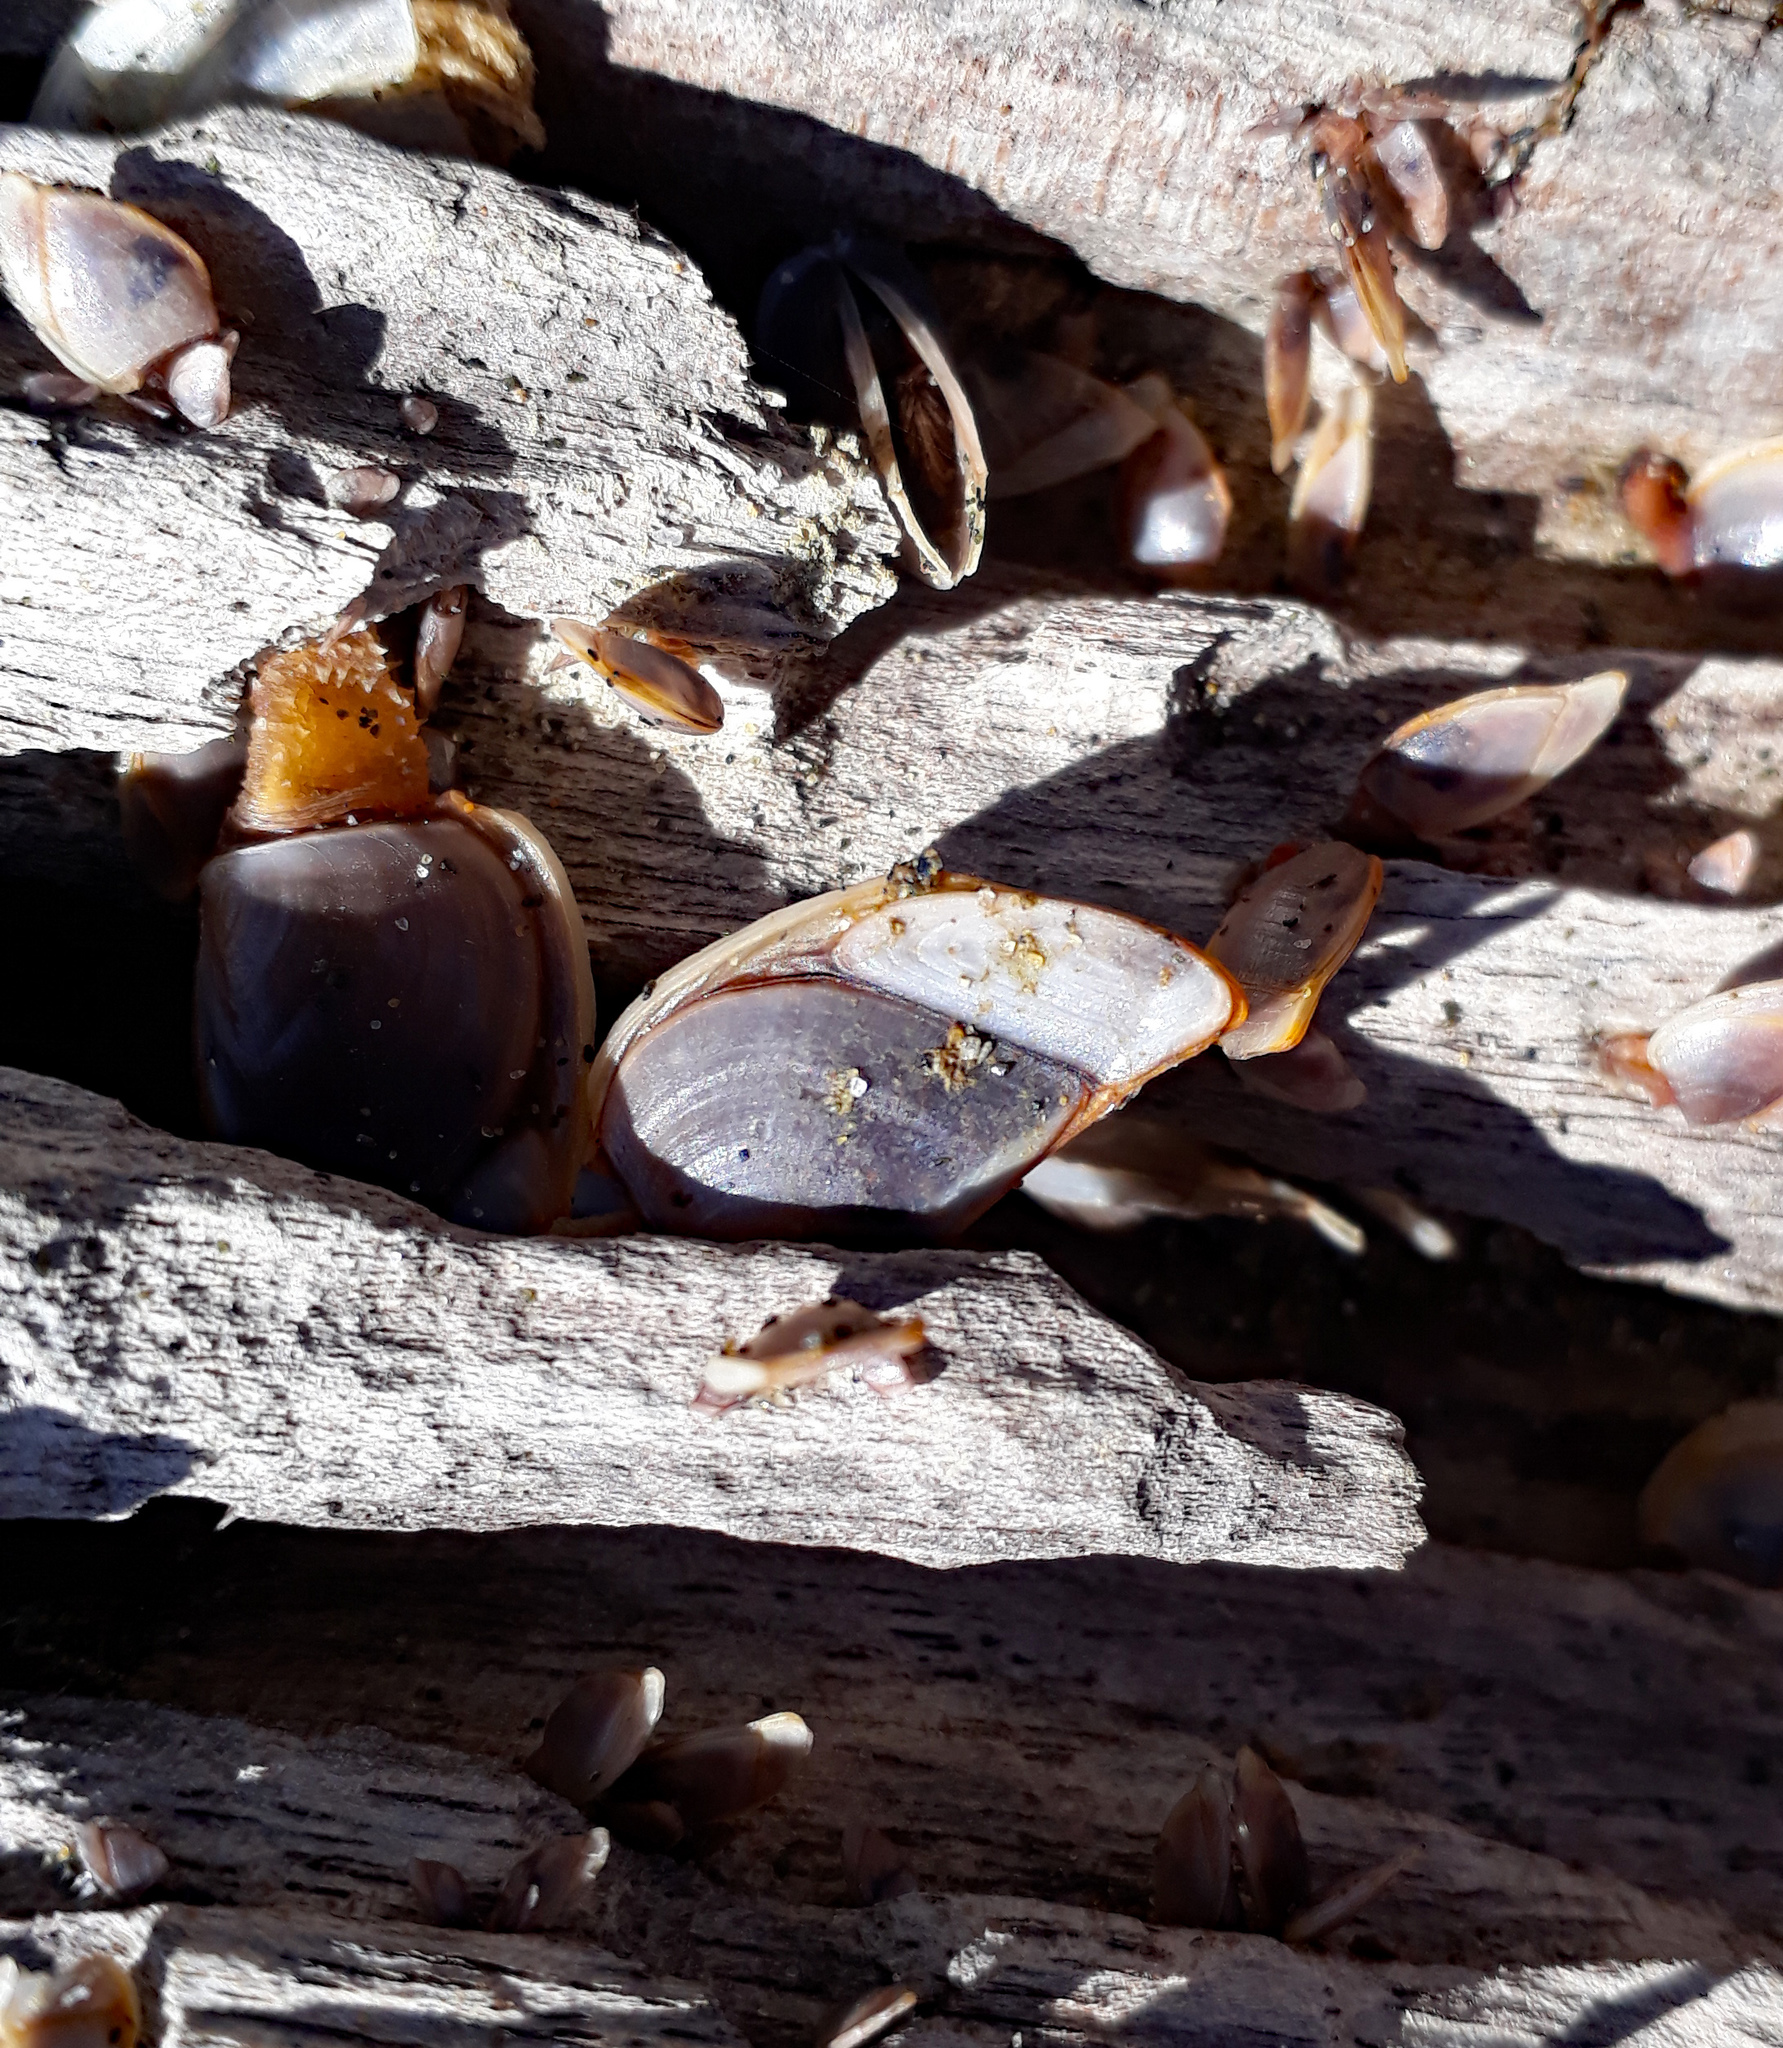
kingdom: Animalia
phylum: Arthropoda
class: Maxillopoda
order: Pedunculata
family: Lepadidae
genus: Lepas
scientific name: Lepas anatifera
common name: Common goose barnacle
